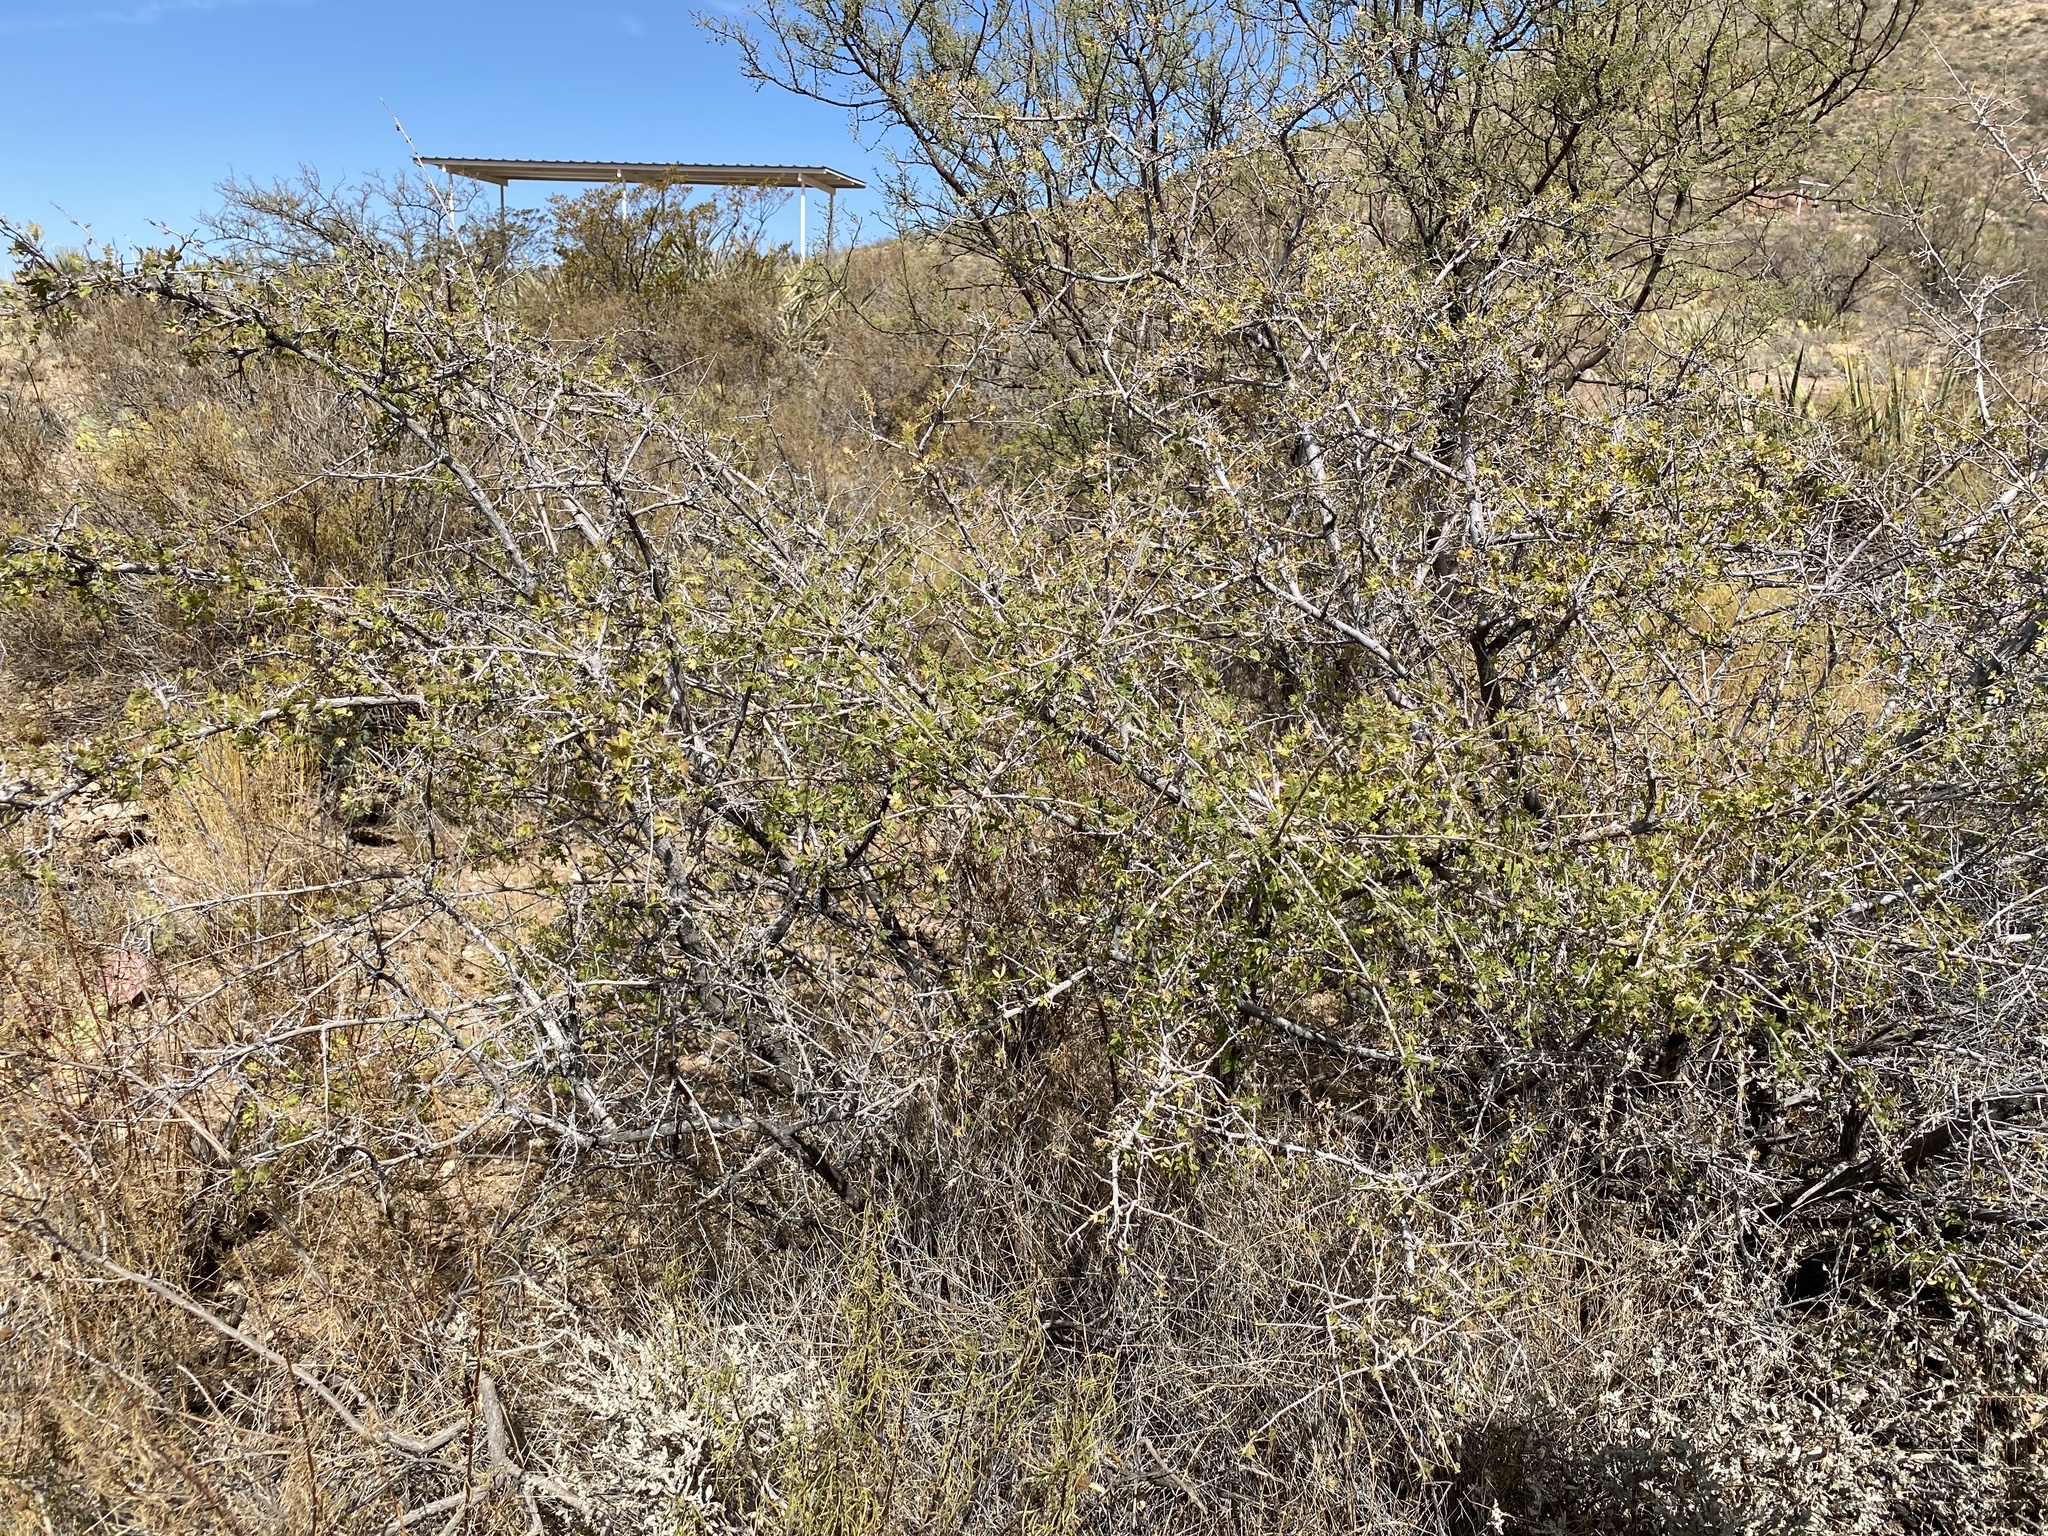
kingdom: Plantae
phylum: Tracheophyta
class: Magnoliopsida
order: Sapindales
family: Anacardiaceae
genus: Rhus
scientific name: Rhus microphylla
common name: Desert sumac
